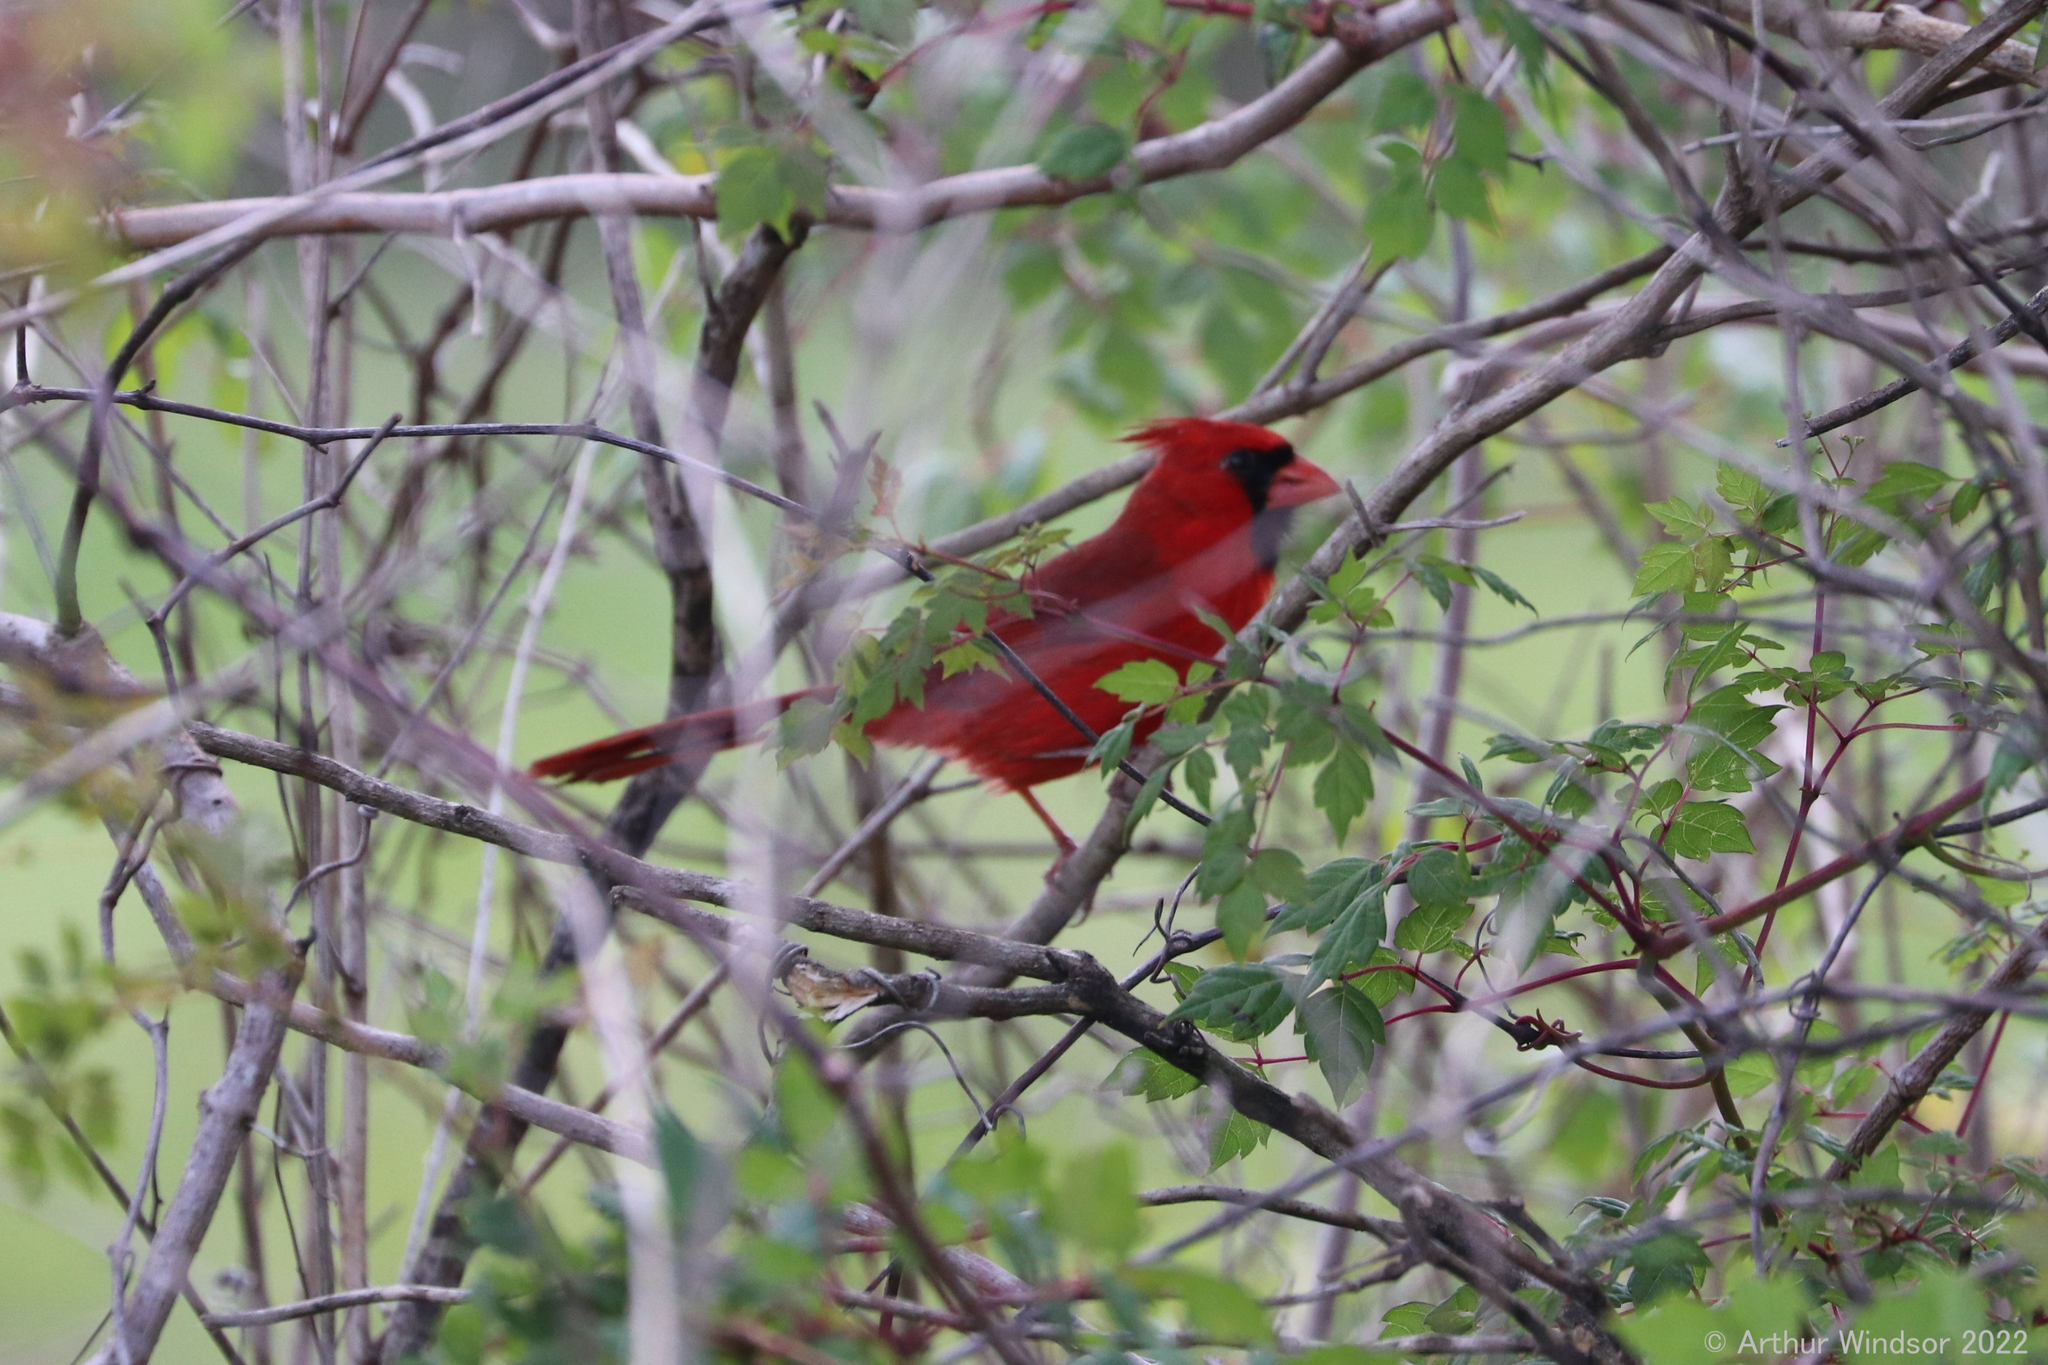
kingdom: Animalia
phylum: Chordata
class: Aves
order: Passeriformes
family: Cardinalidae
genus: Cardinalis
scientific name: Cardinalis cardinalis
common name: Northern cardinal
